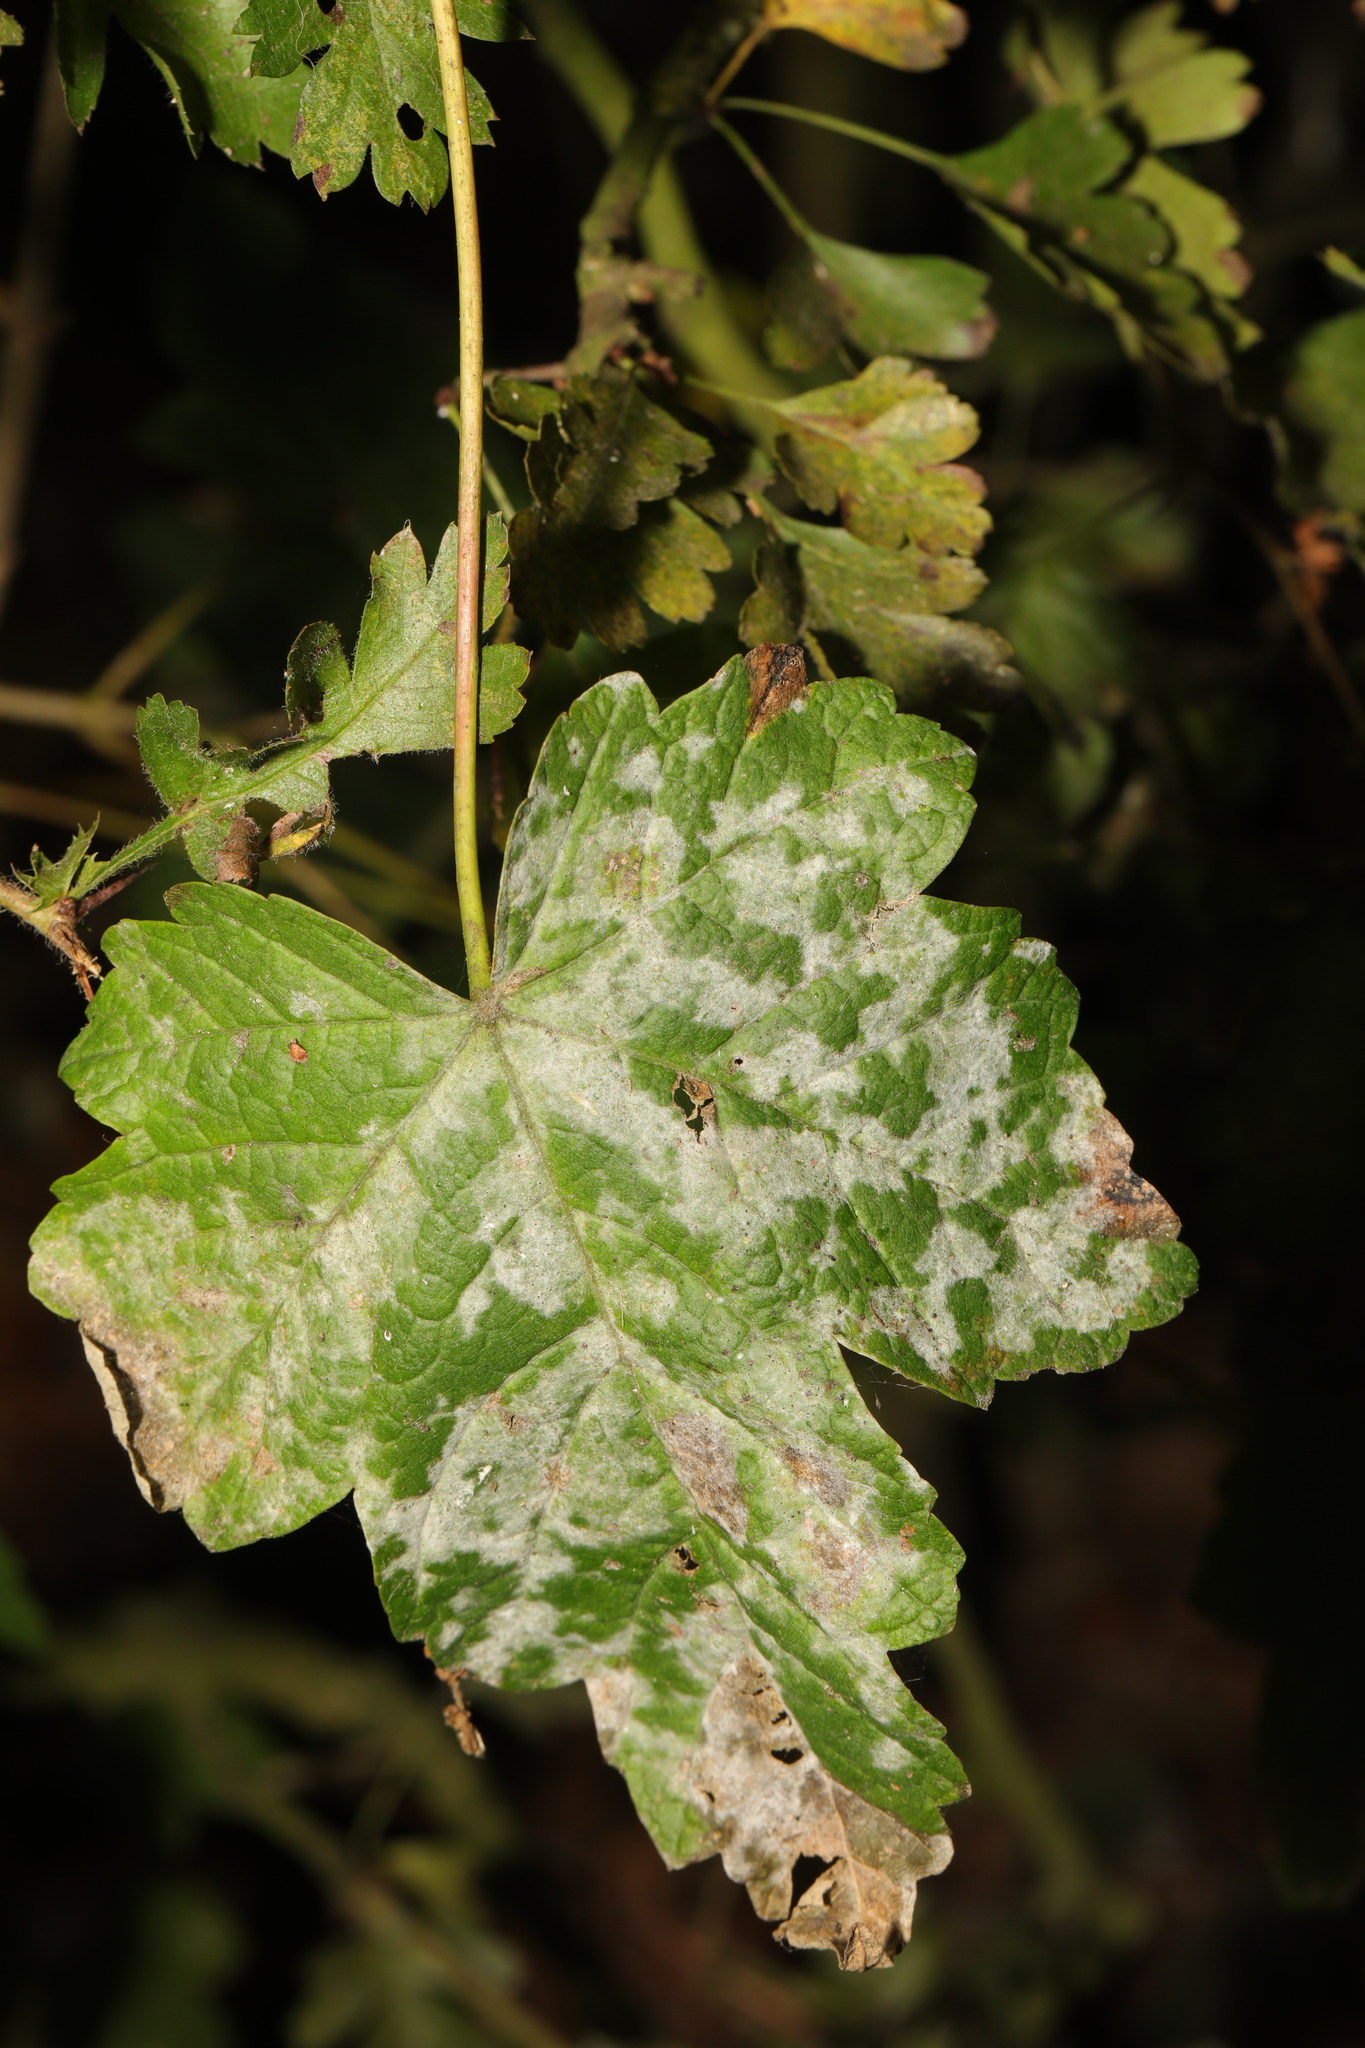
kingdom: Fungi
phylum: Ascomycota
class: Leotiomycetes
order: Helotiales
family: Erysiphaceae
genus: Sawadaea
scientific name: Sawadaea bicornis
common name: Maple mildew
